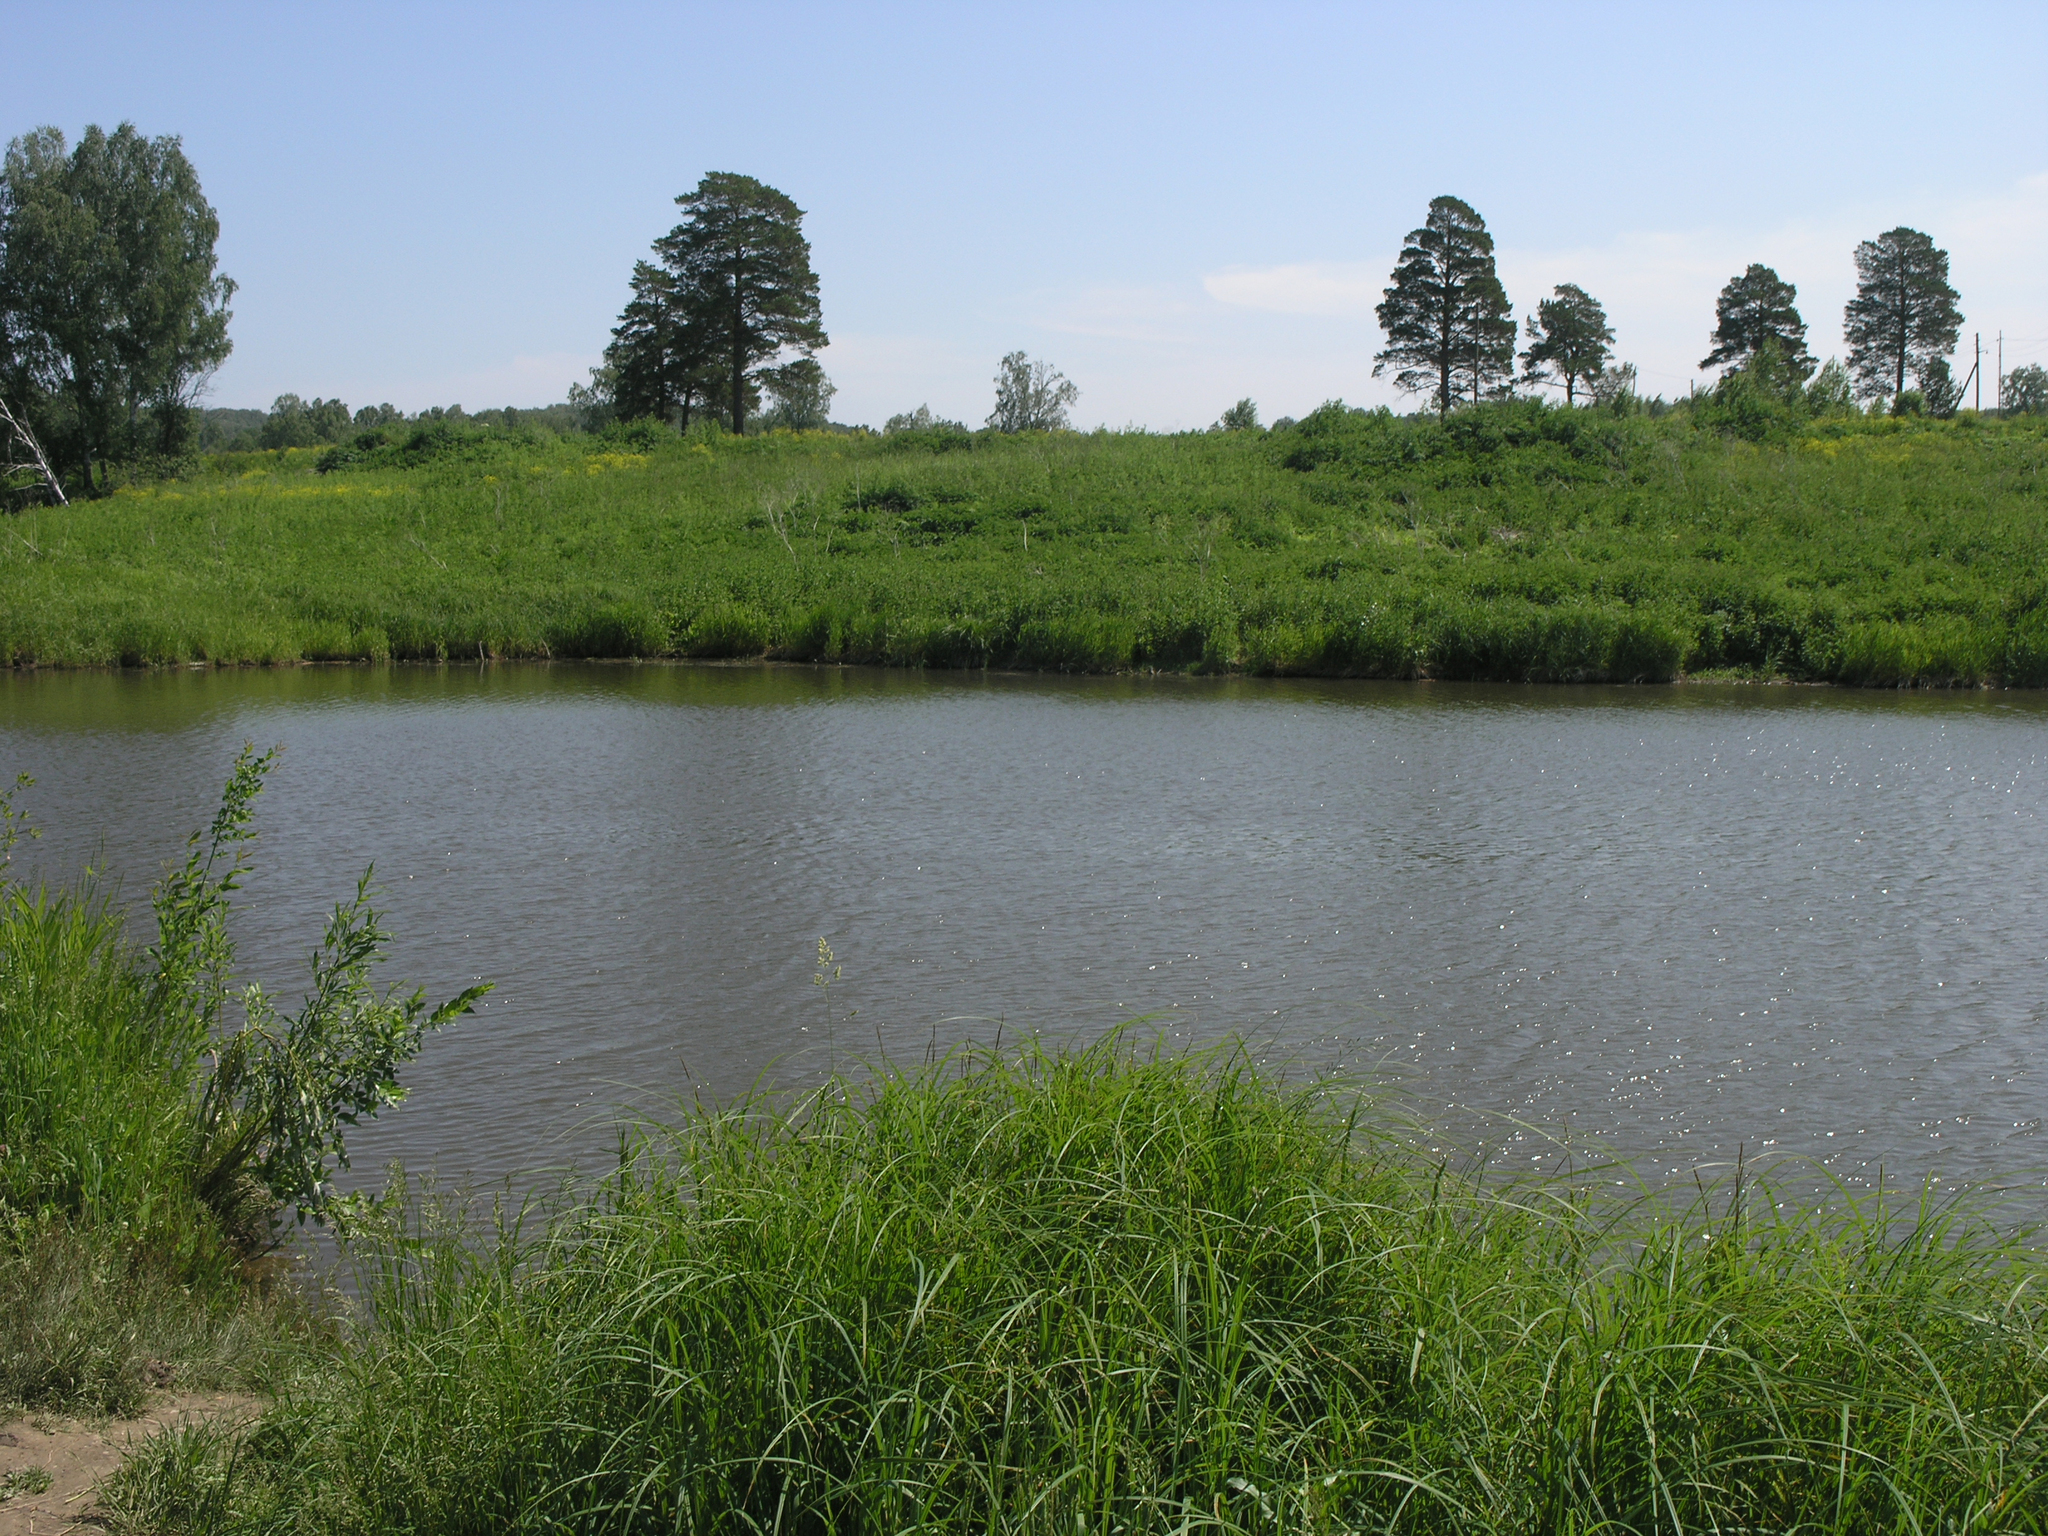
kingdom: Plantae
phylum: Tracheophyta
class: Pinopsida
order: Pinales
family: Pinaceae
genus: Pinus
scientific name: Pinus sylvestris
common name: Scots pine
